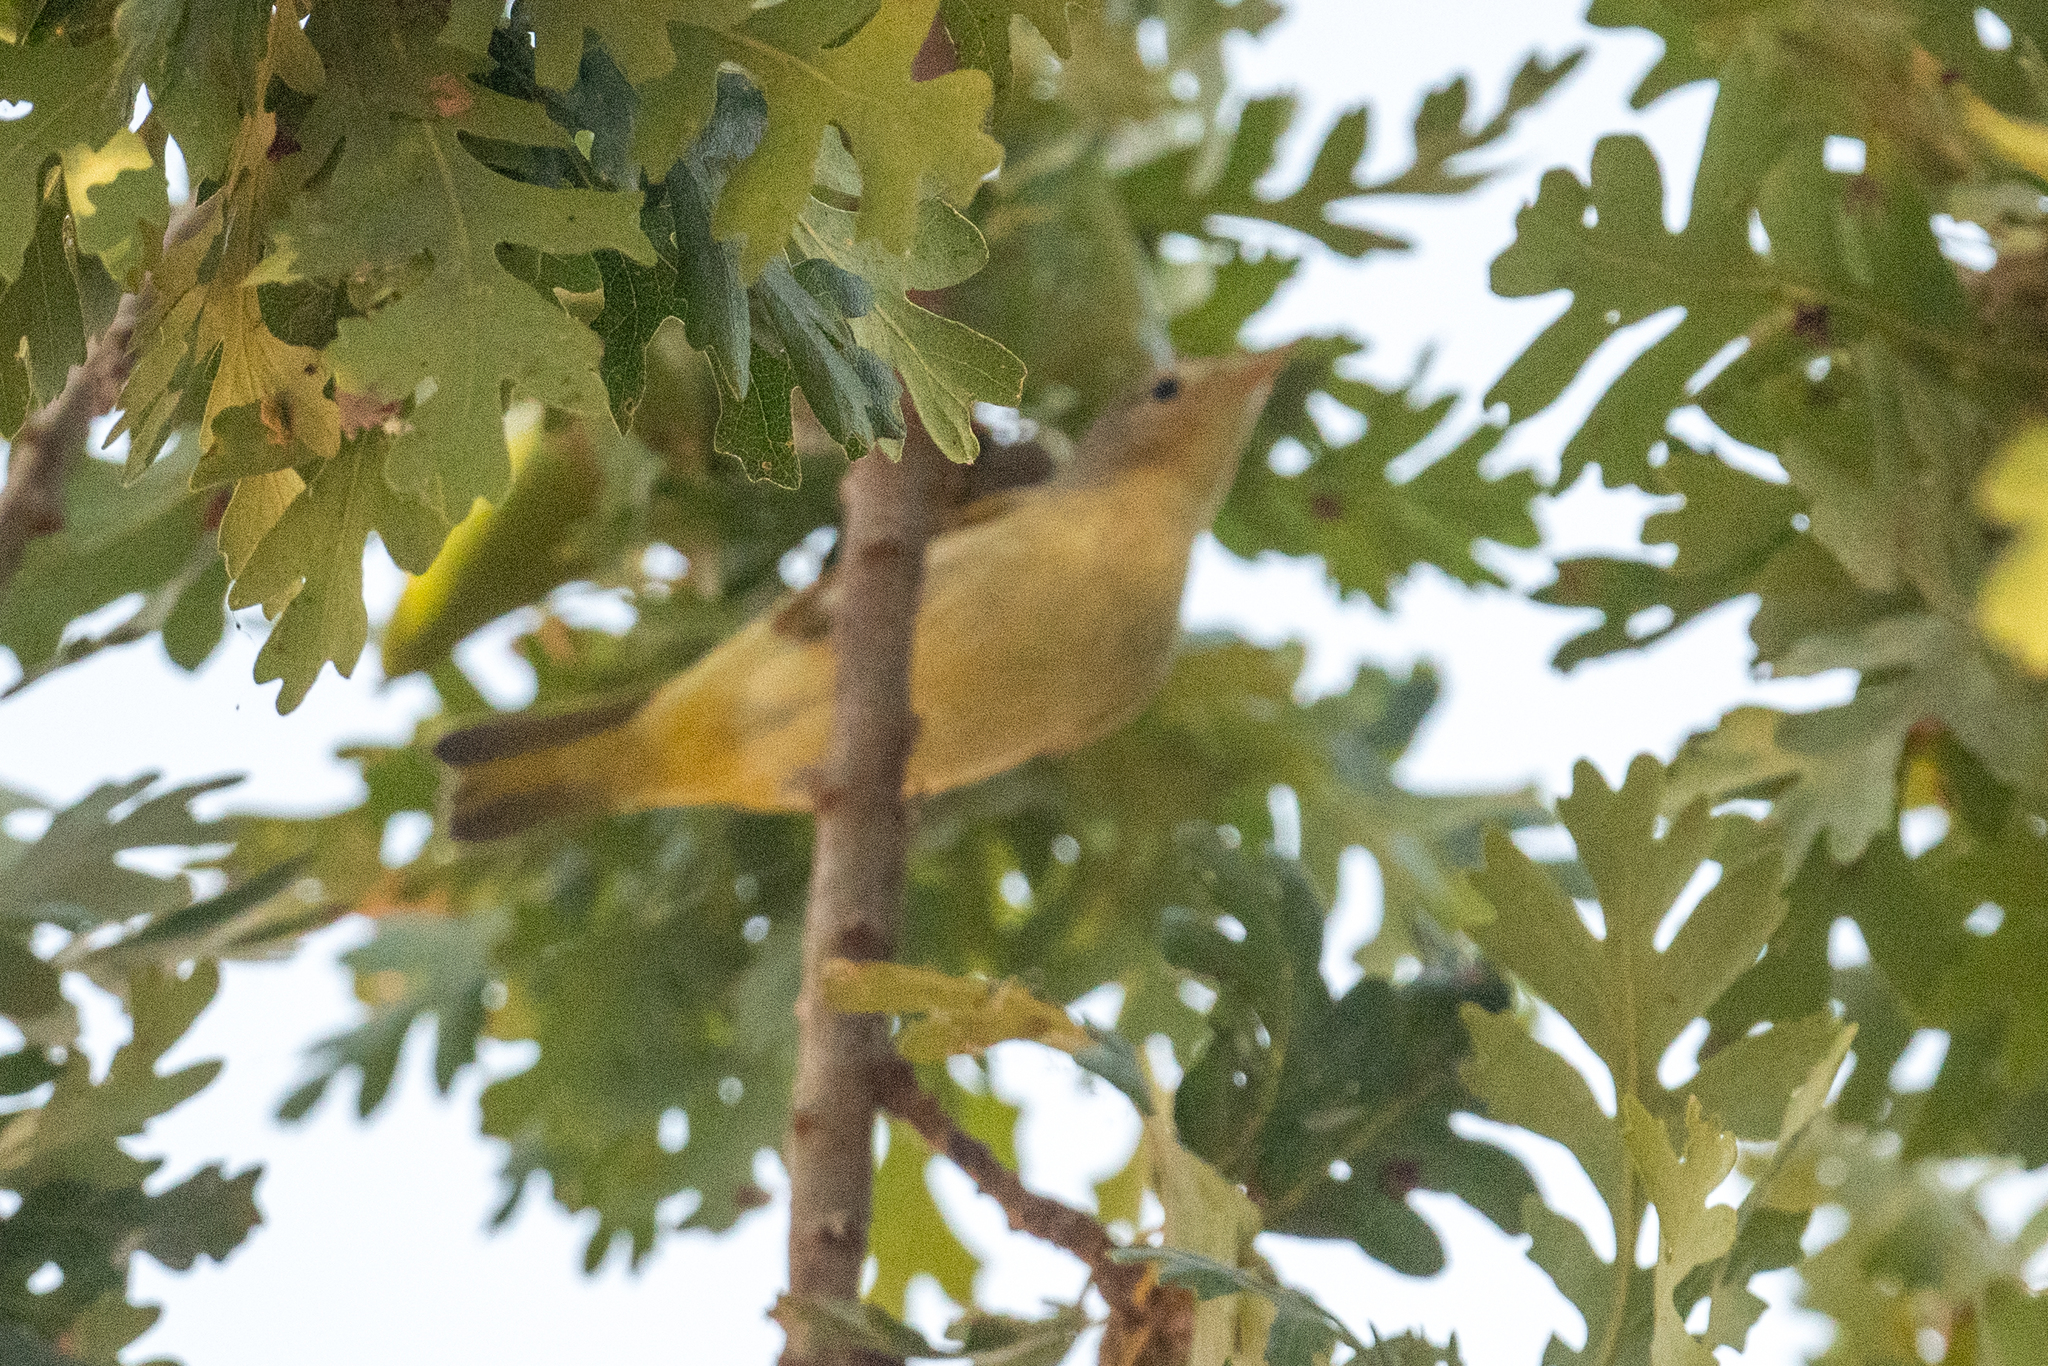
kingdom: Animalia
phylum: Chordata
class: Aves
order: Passeriformes
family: Parulidae
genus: Setophaga
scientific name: Setophaga petechia
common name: Yellow warbler
